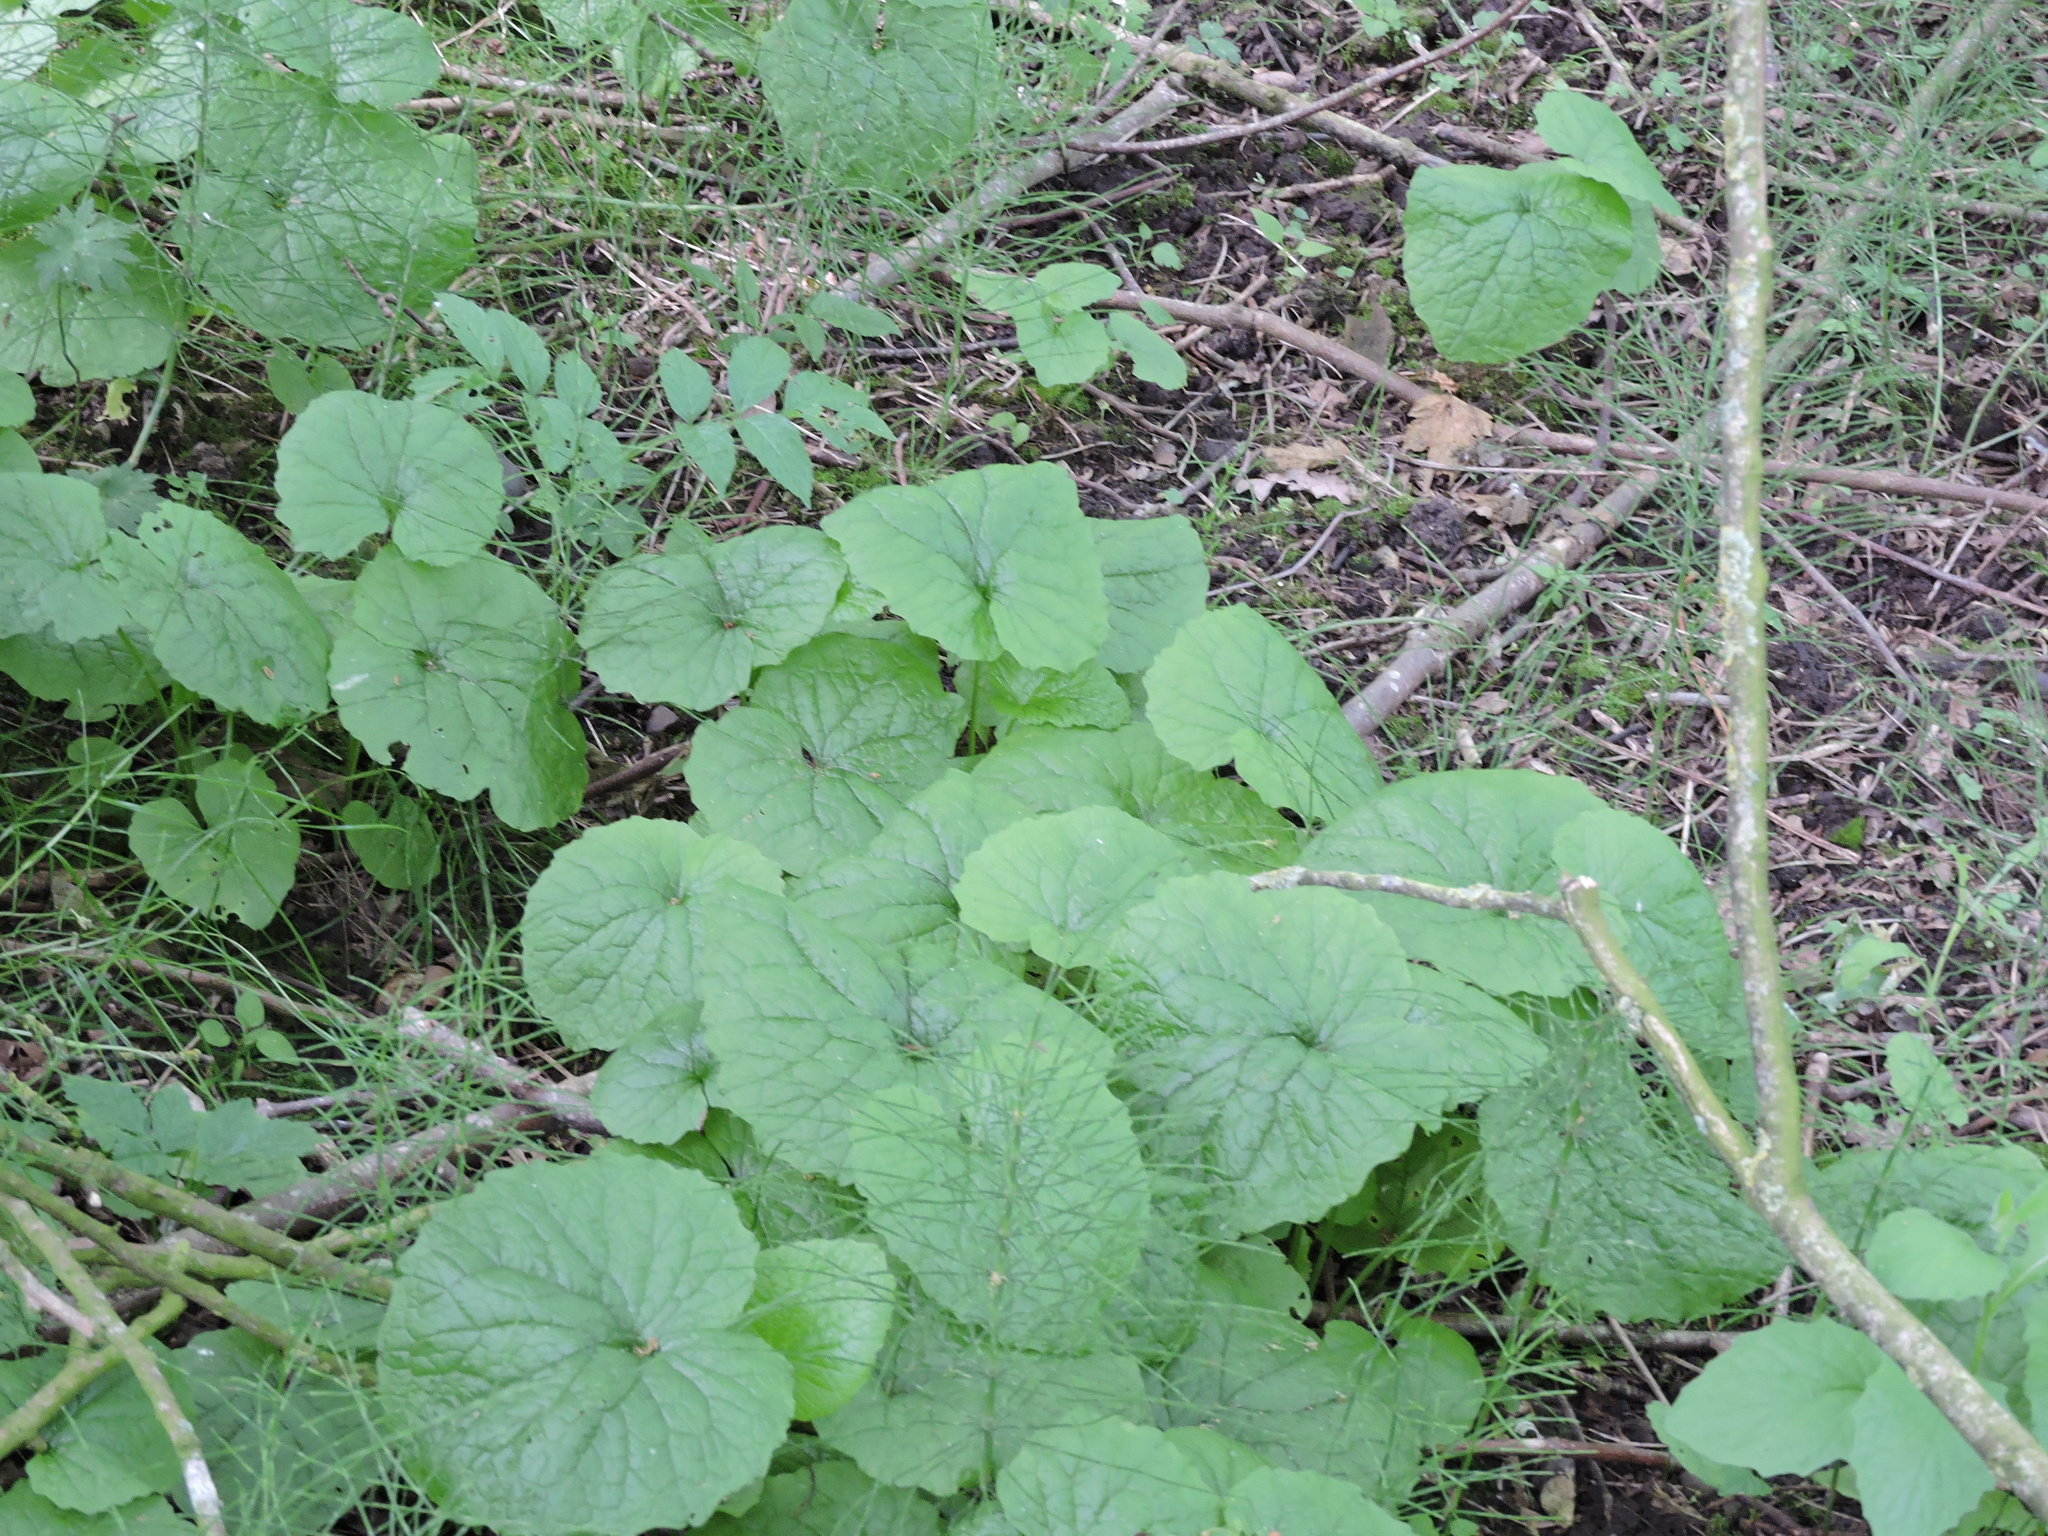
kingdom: Plantae
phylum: Tracheophyta
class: Magnoliopsida
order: Brassicales
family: Brassicaceae
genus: Alliaria
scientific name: Alliaria petiolata
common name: Garlic mustard
